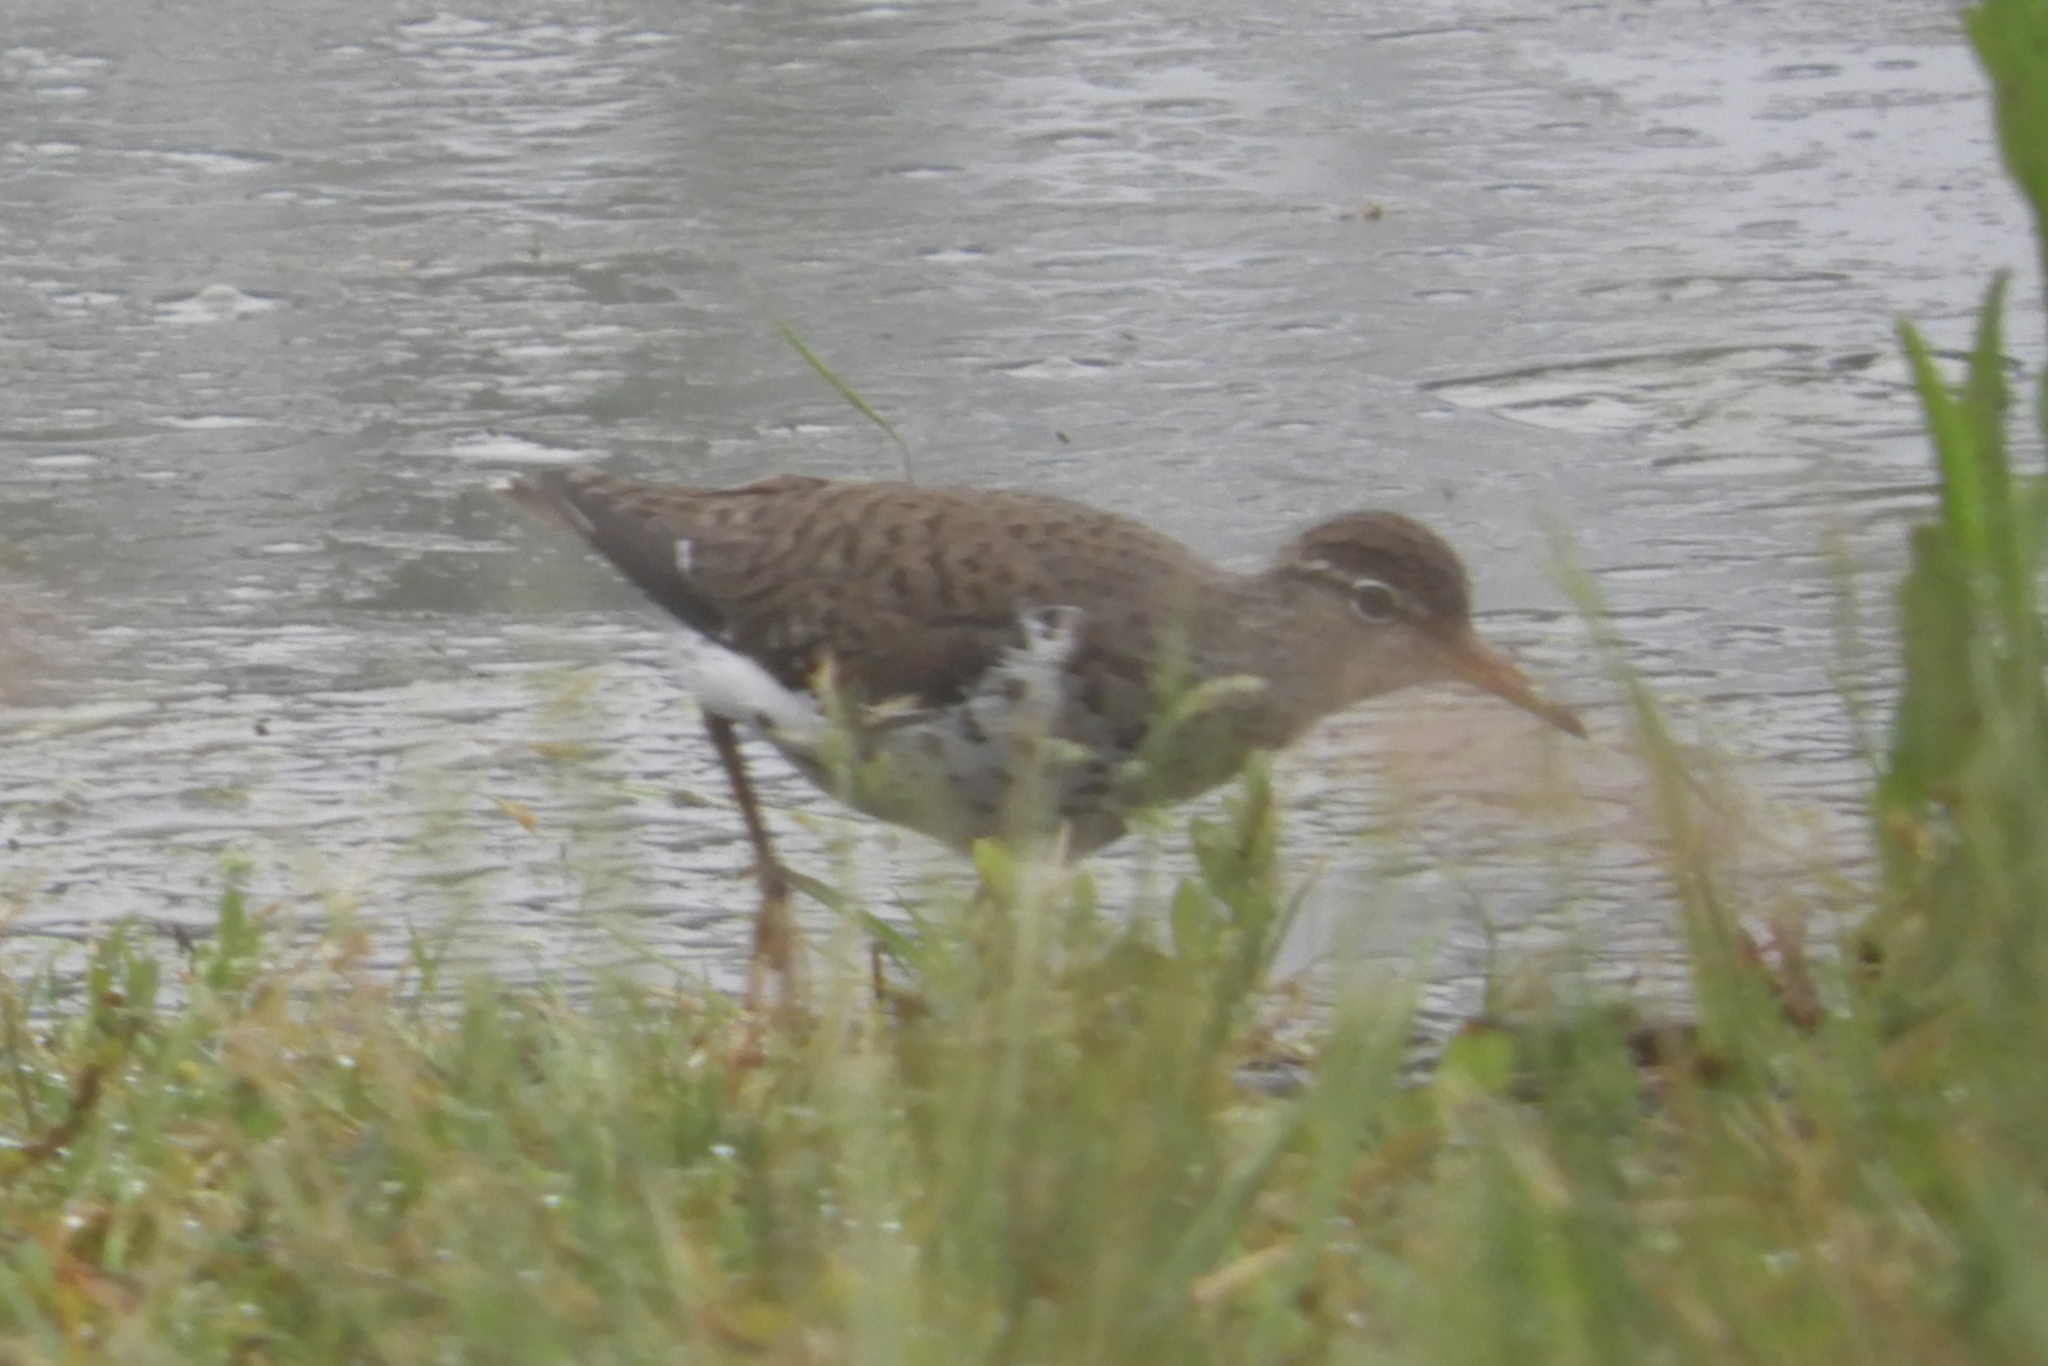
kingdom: Animalia
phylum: Chordata
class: Aves
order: Charadriiformes
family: Scolopacidae
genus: Actitis
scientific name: Actitis macularius
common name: Spotted sandpiper
